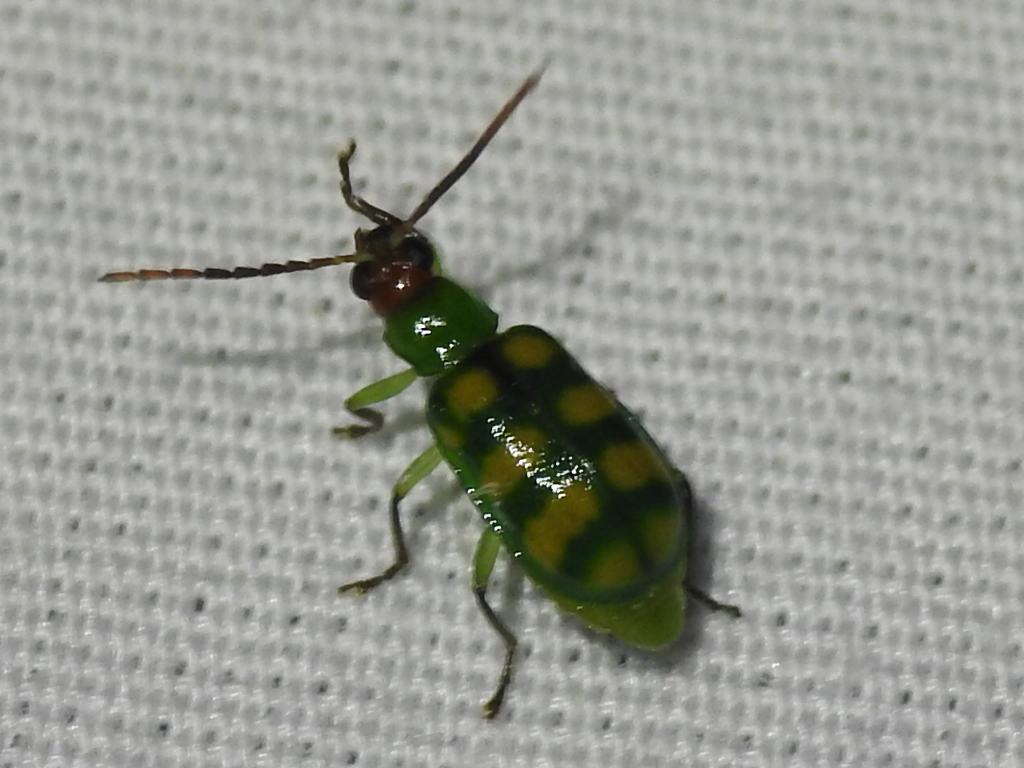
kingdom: Animalia
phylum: Arthropoda
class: Insecta
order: Coleoptera
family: Chrysomelidae
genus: Diabrotica
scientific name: Diabrotica balteata
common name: Leaf beetle
